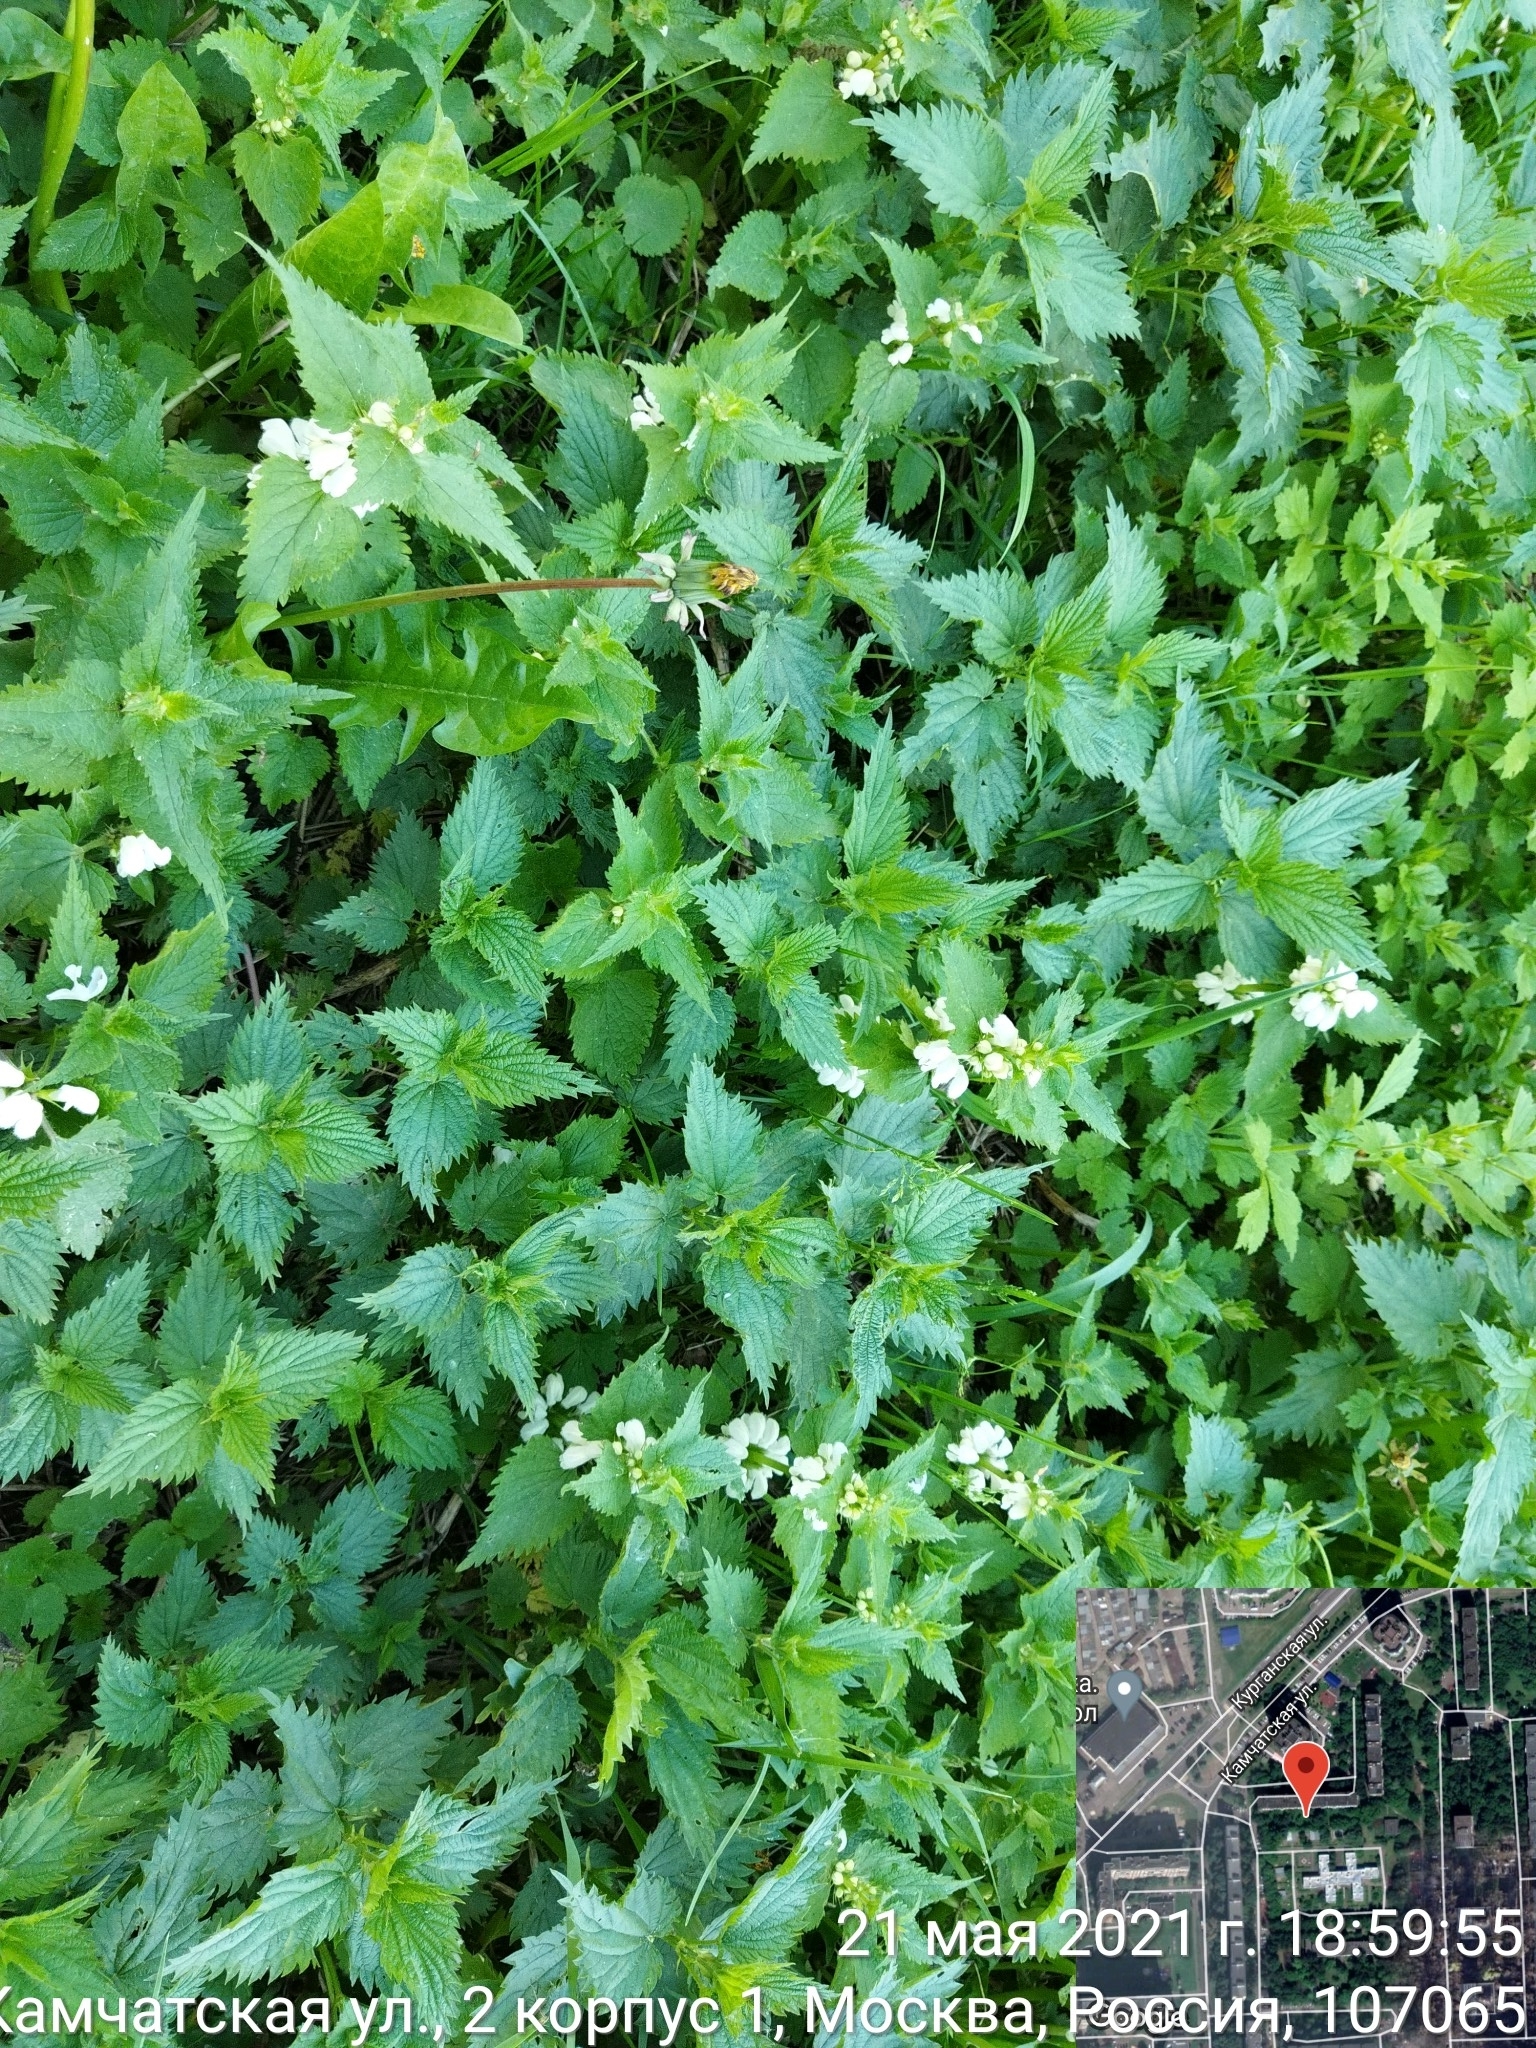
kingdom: Plantae
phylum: Tracheophyta
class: Magnoliopsida
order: Lamiales
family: Lamiaceae
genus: Lamium
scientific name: Lamium album
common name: White dead-nettle
